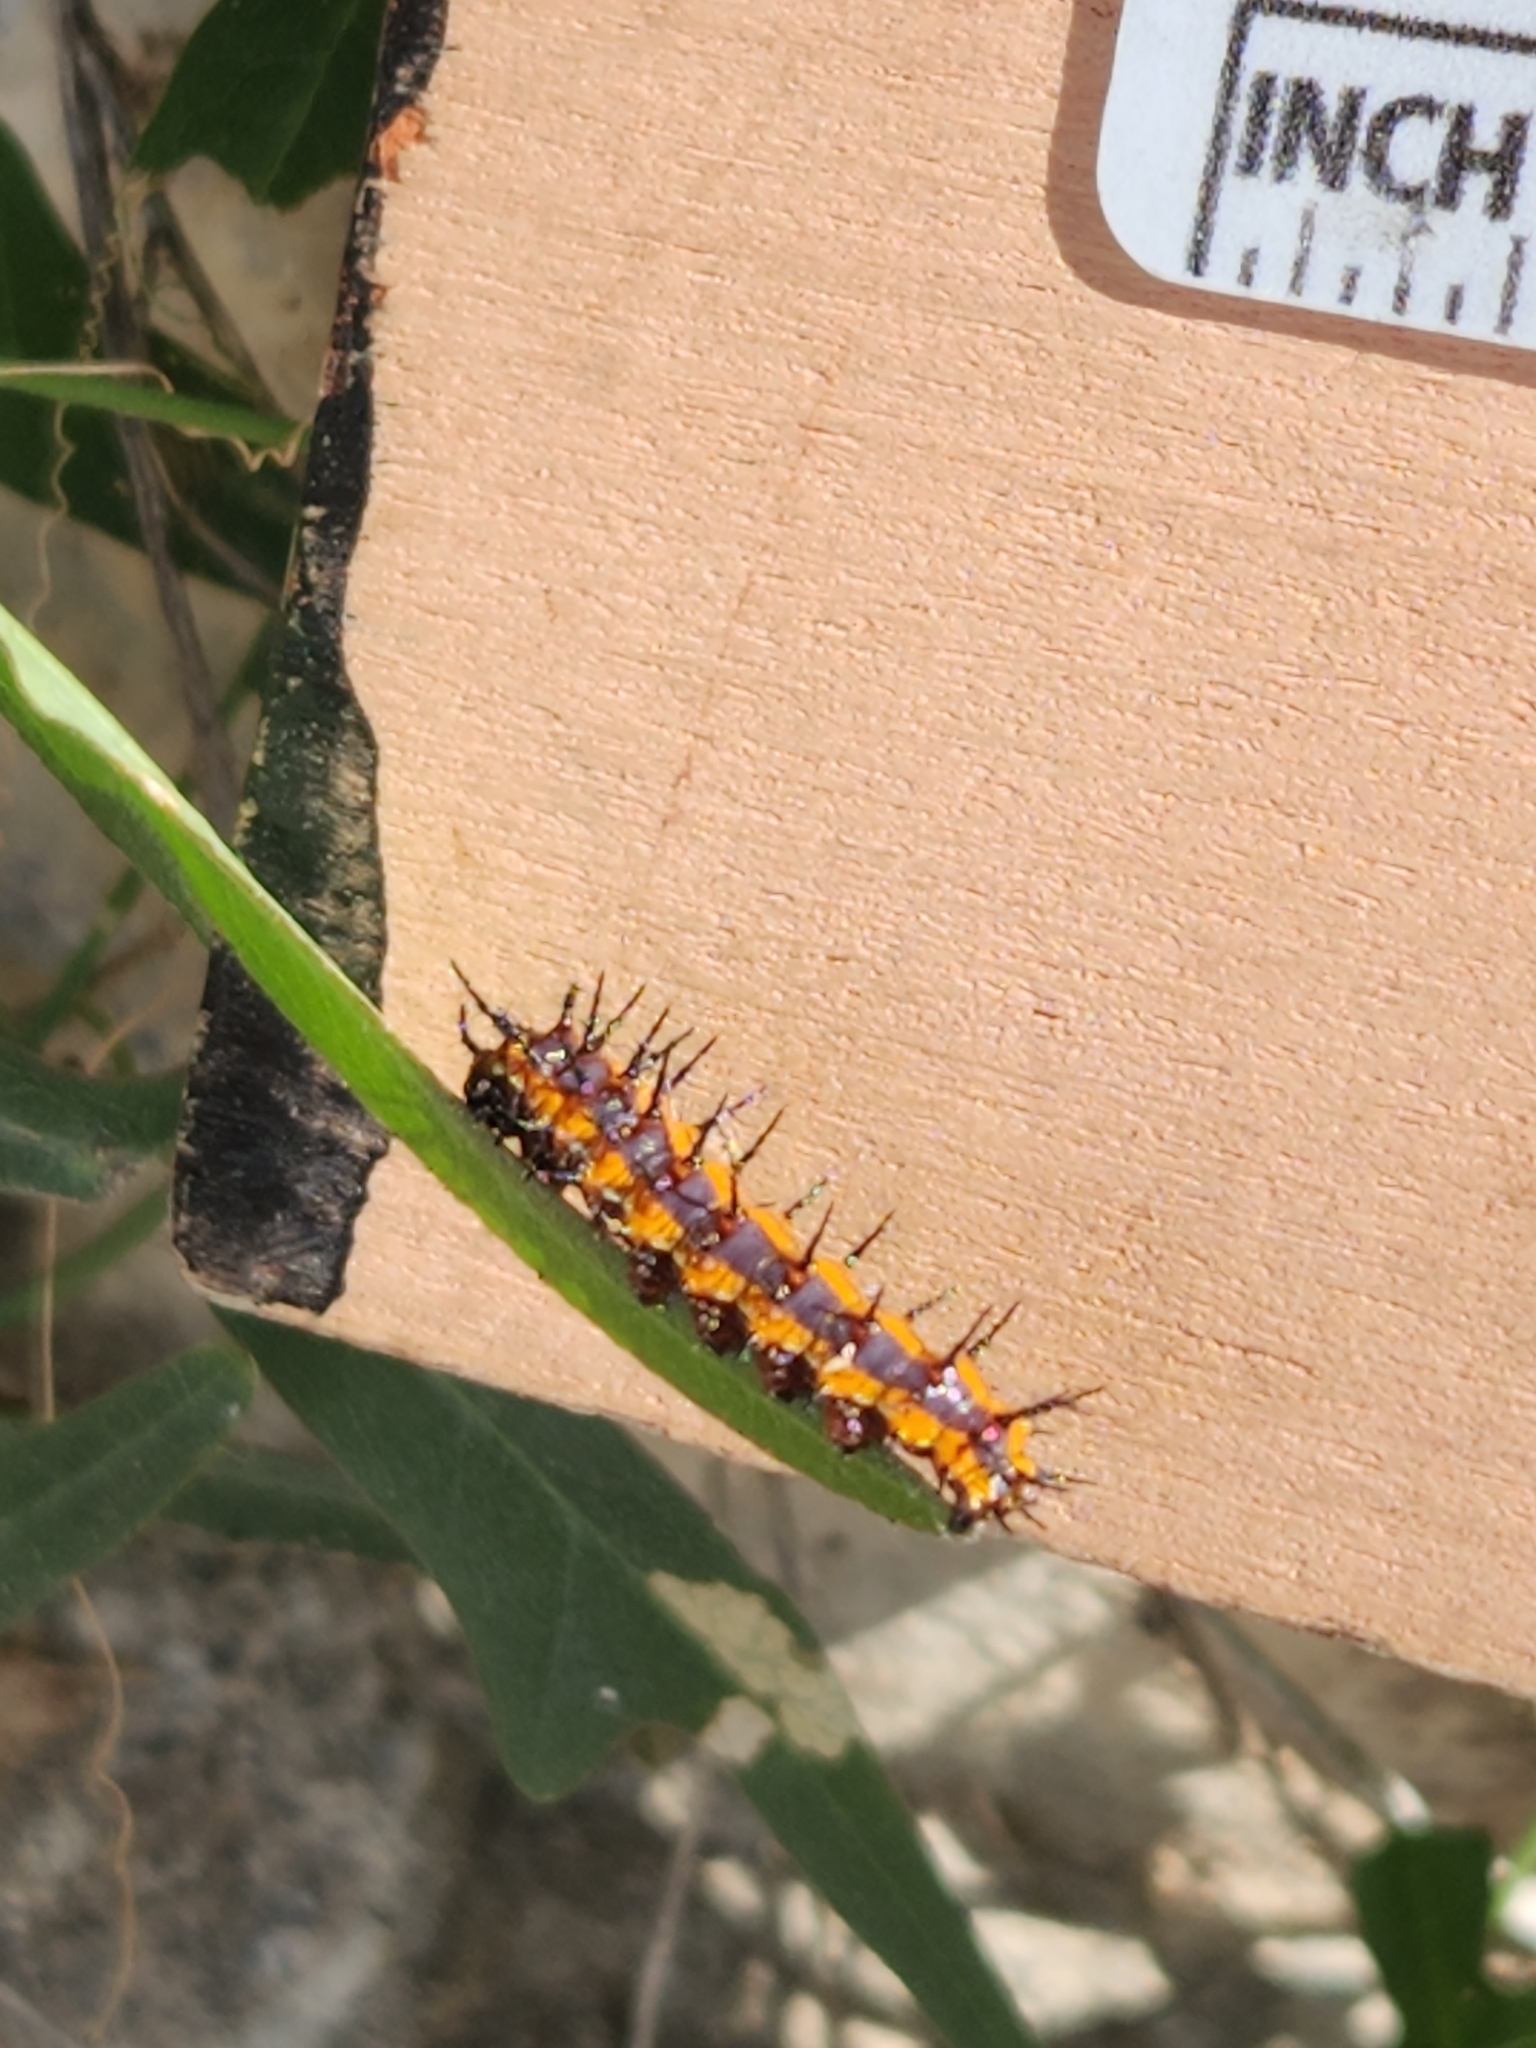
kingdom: Animalia
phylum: Arthropoda
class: Insecta
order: Lepidoptera
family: Nymphalidae
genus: Dione
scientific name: Dione vanillae
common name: Gulf fritillary
